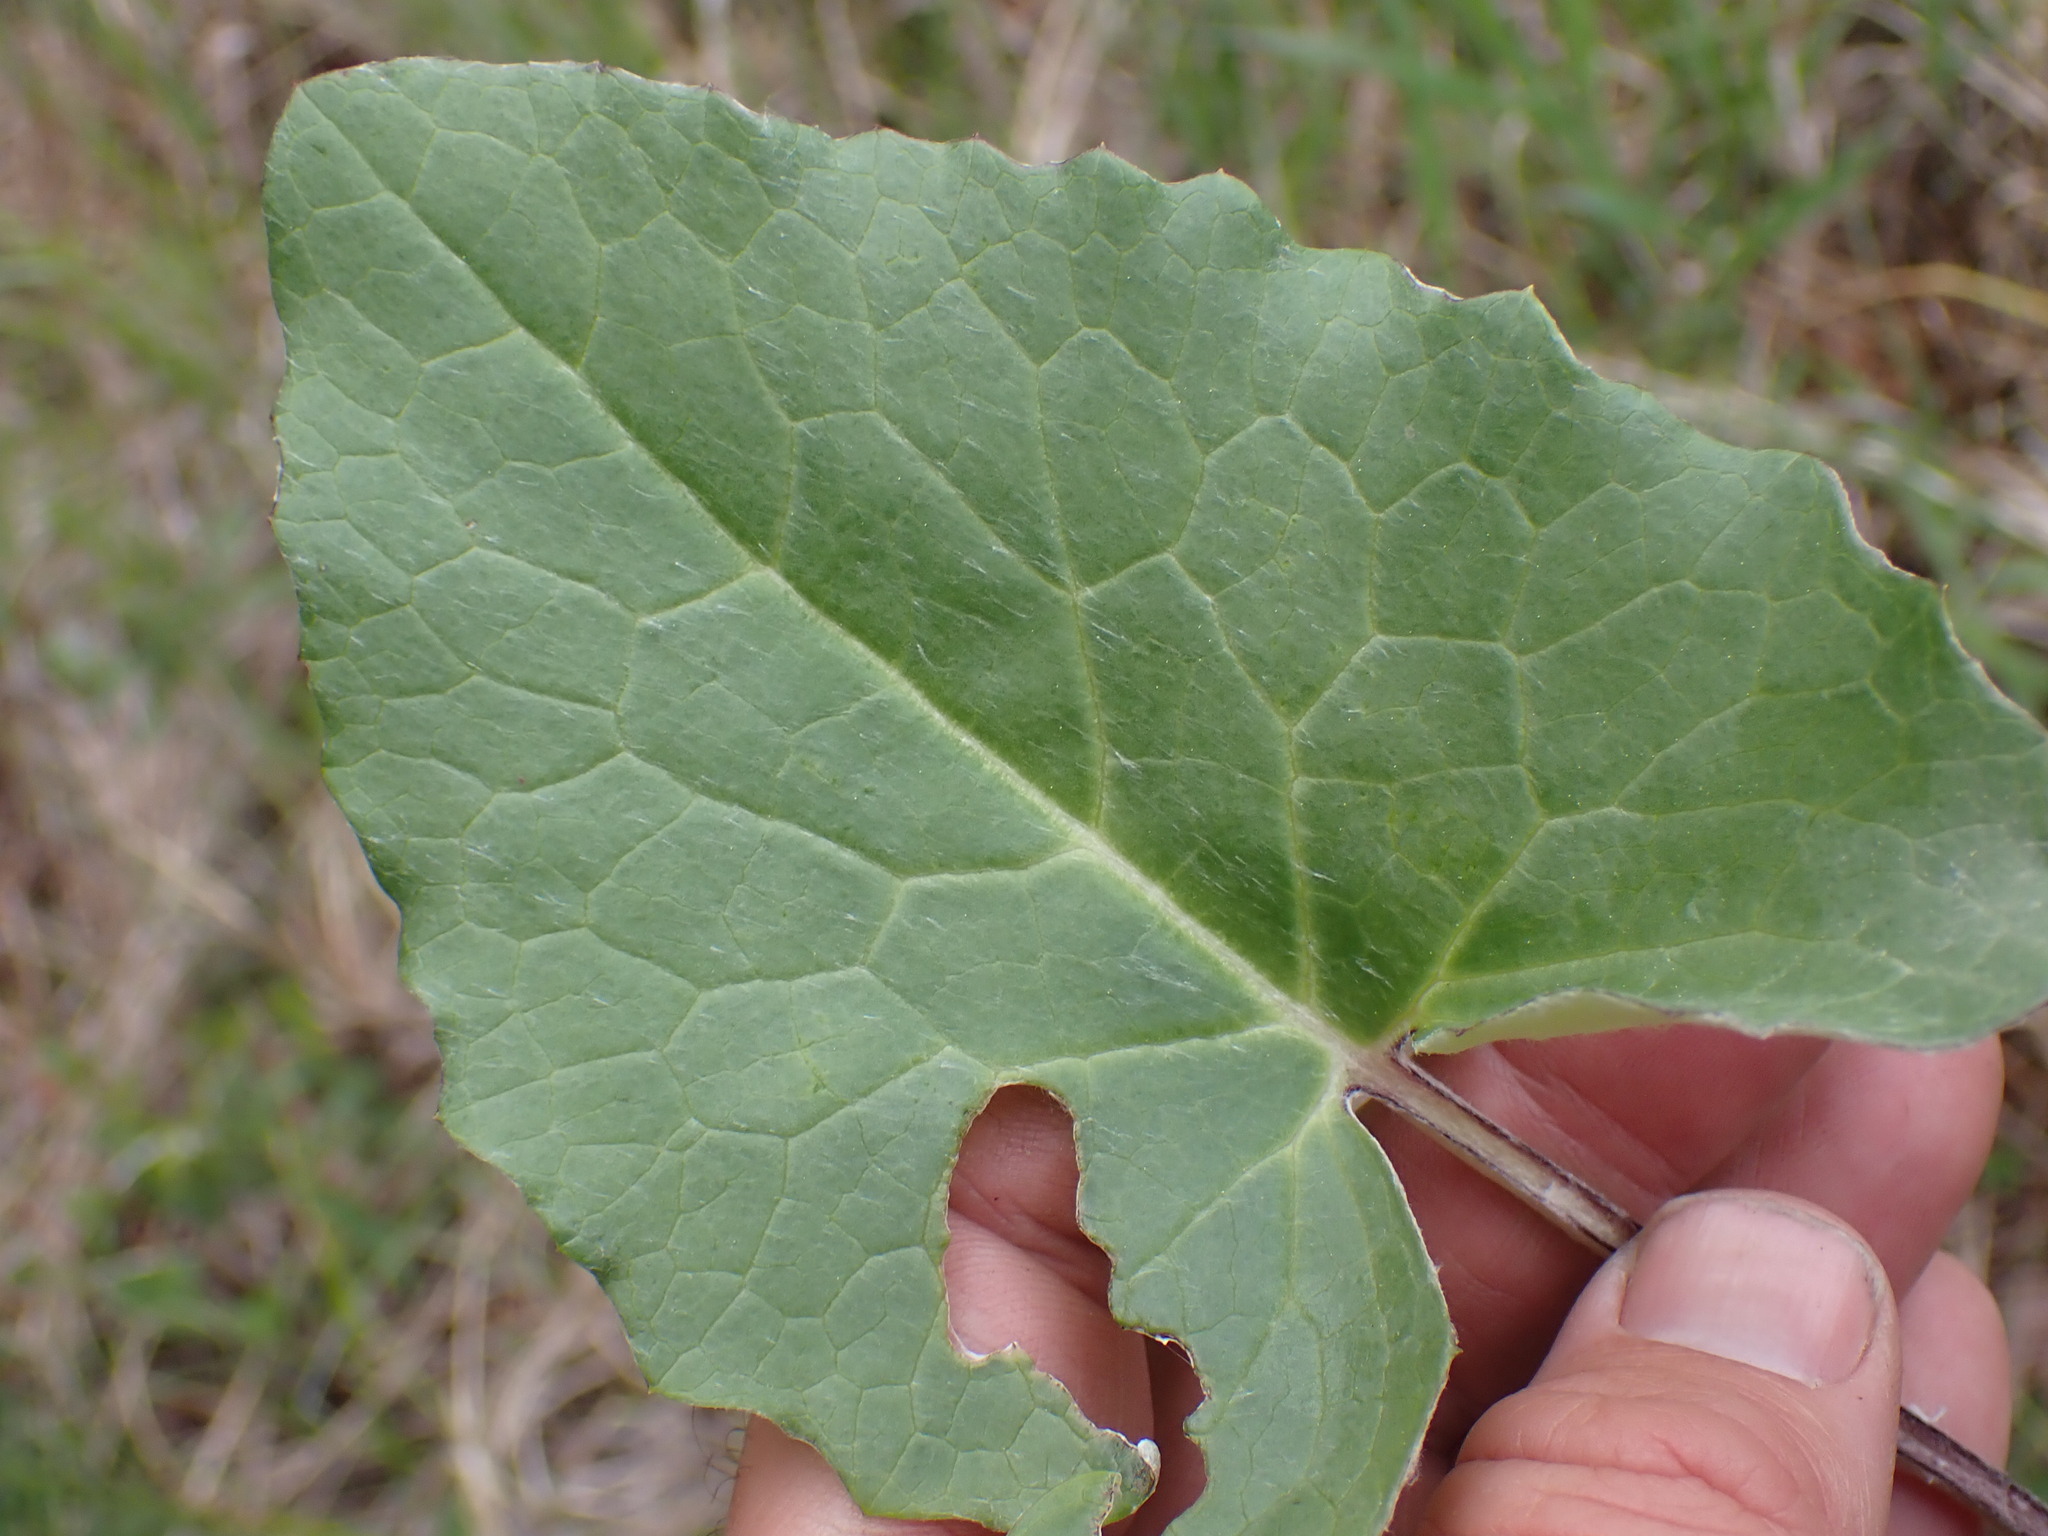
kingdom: Plantae
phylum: Tracheophyta
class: Magnoliopsida
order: Asterales
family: Asteraceae
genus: Petasites
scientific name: Petasites frigidus
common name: Arctic butterbur
